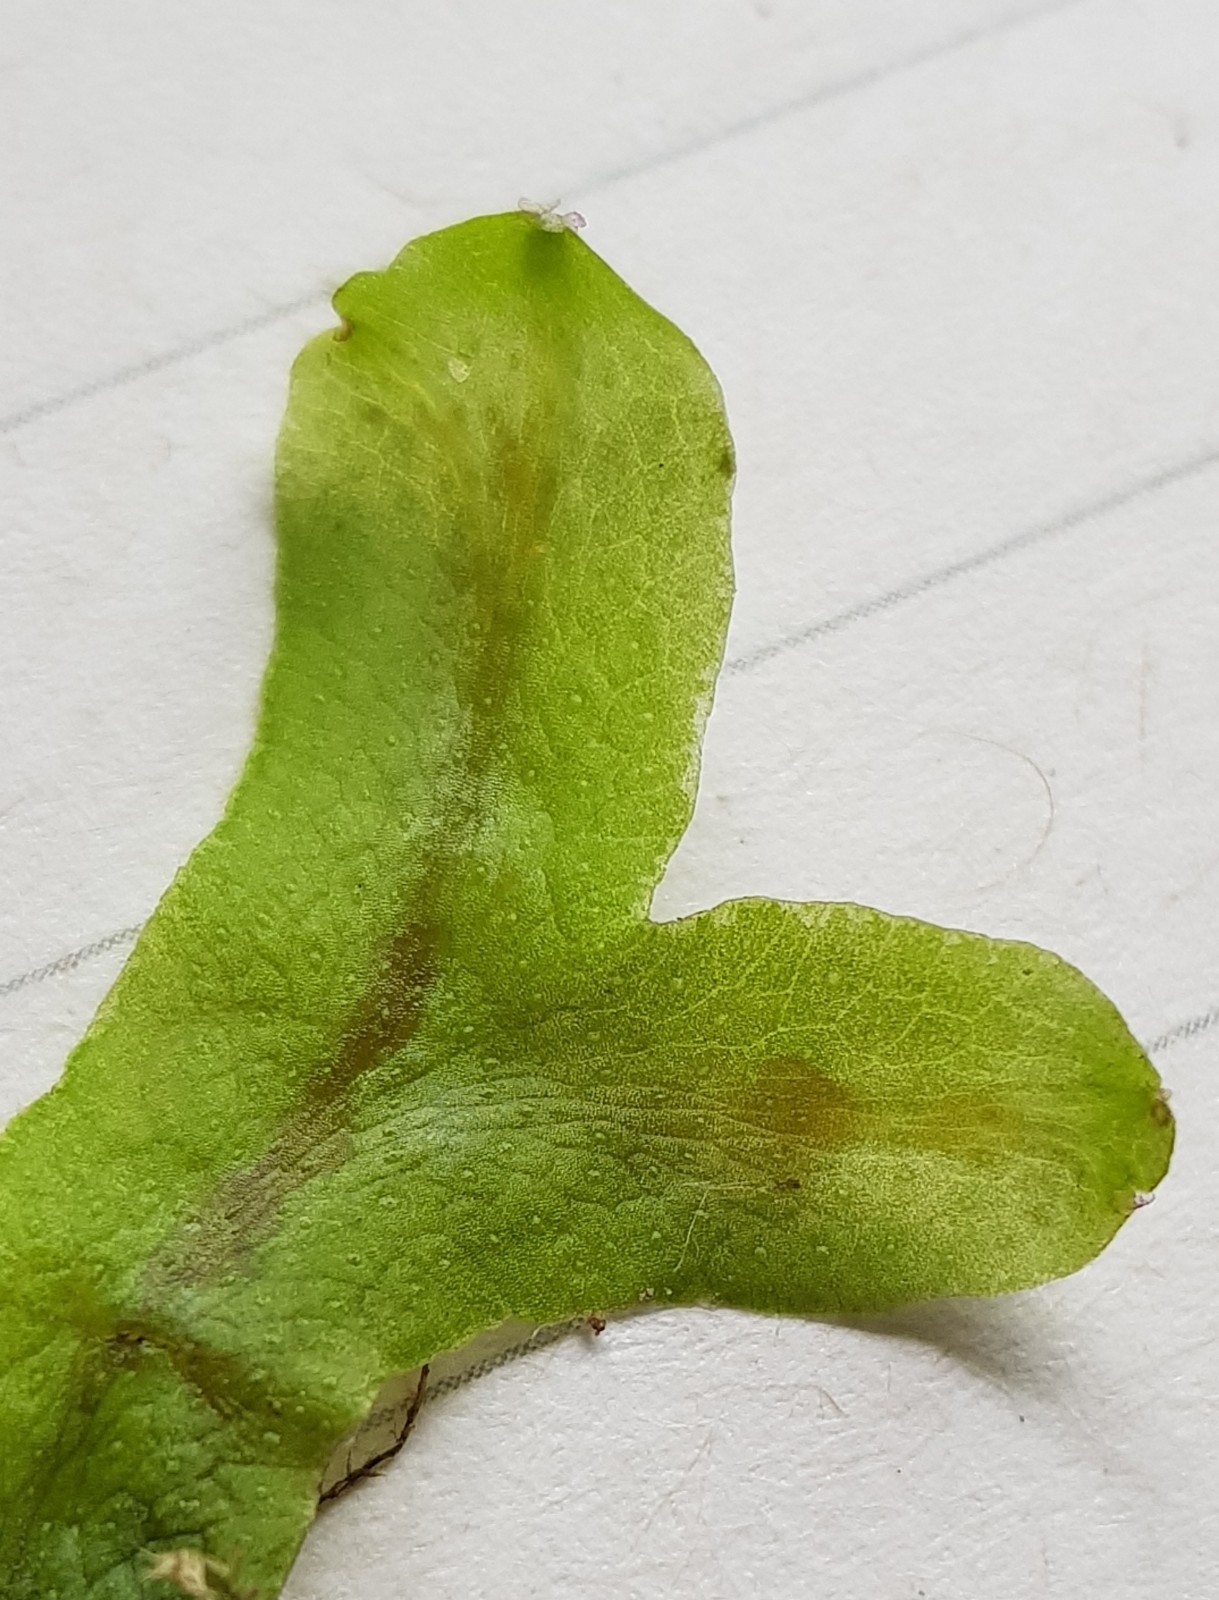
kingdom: Plantae
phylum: Marchantiophyta
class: Marchantiopsida
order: Marchantiales
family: Conocephalaceae
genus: Conocephalum
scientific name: Conocephalum conicum
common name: Great scented liverwort
